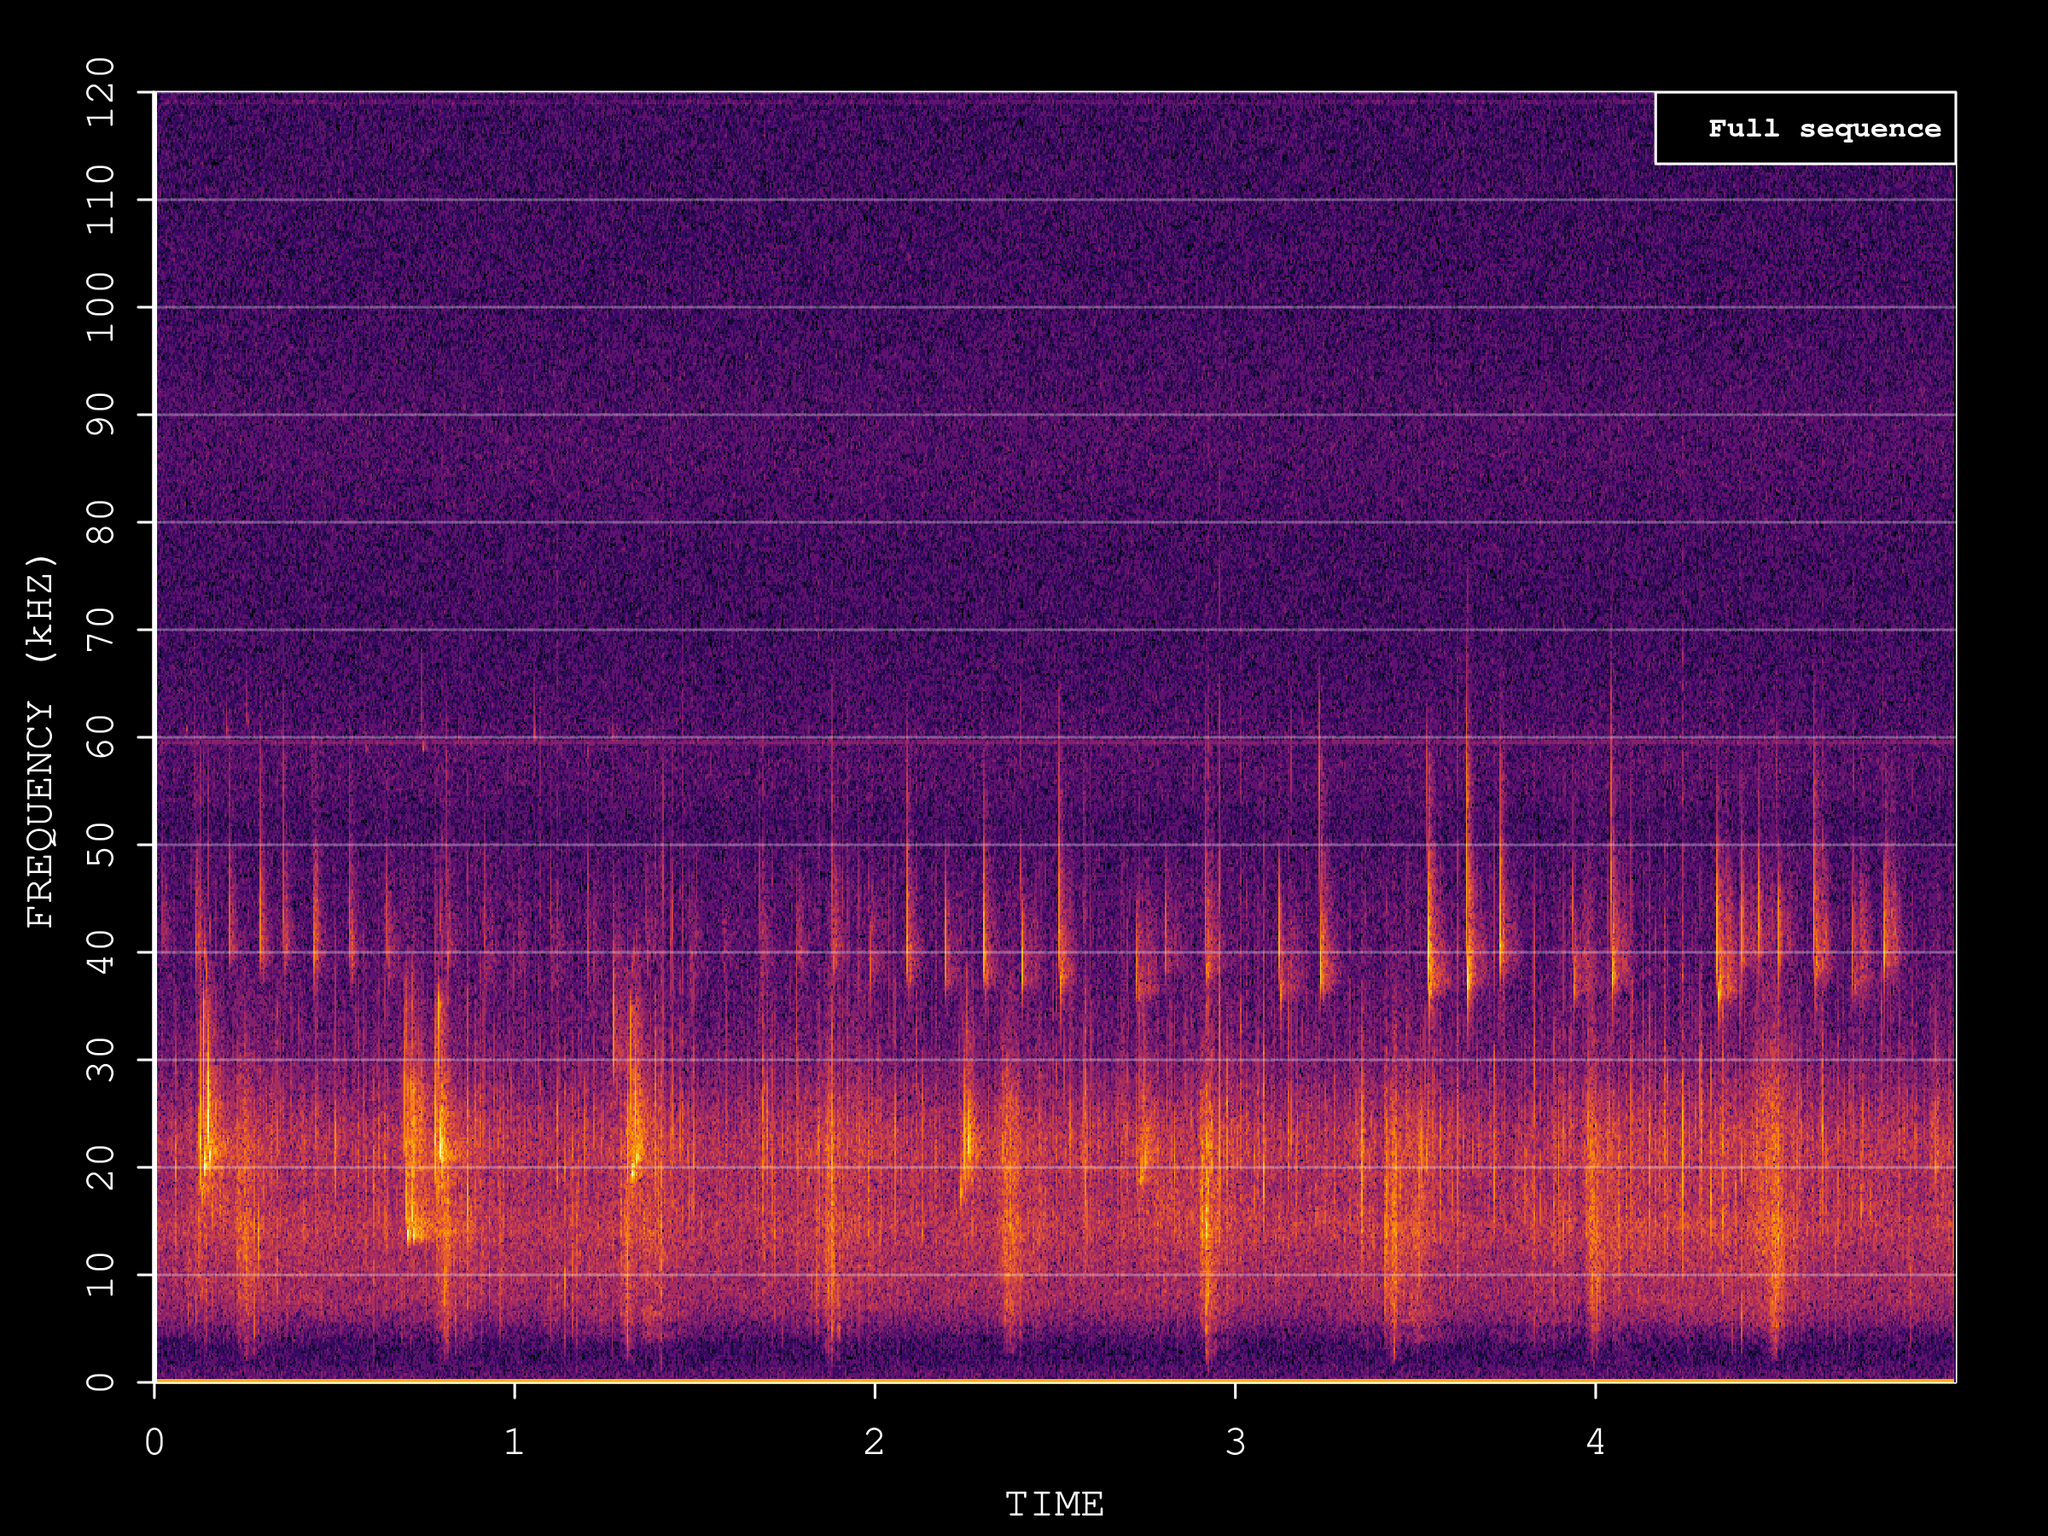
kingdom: Animalia
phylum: Chordata
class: Mammalia
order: Chiroptera
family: Vespertilionidae
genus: Pipistrellus
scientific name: Pipistrellus kuhlii
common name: Kuhl's pipistrelle
